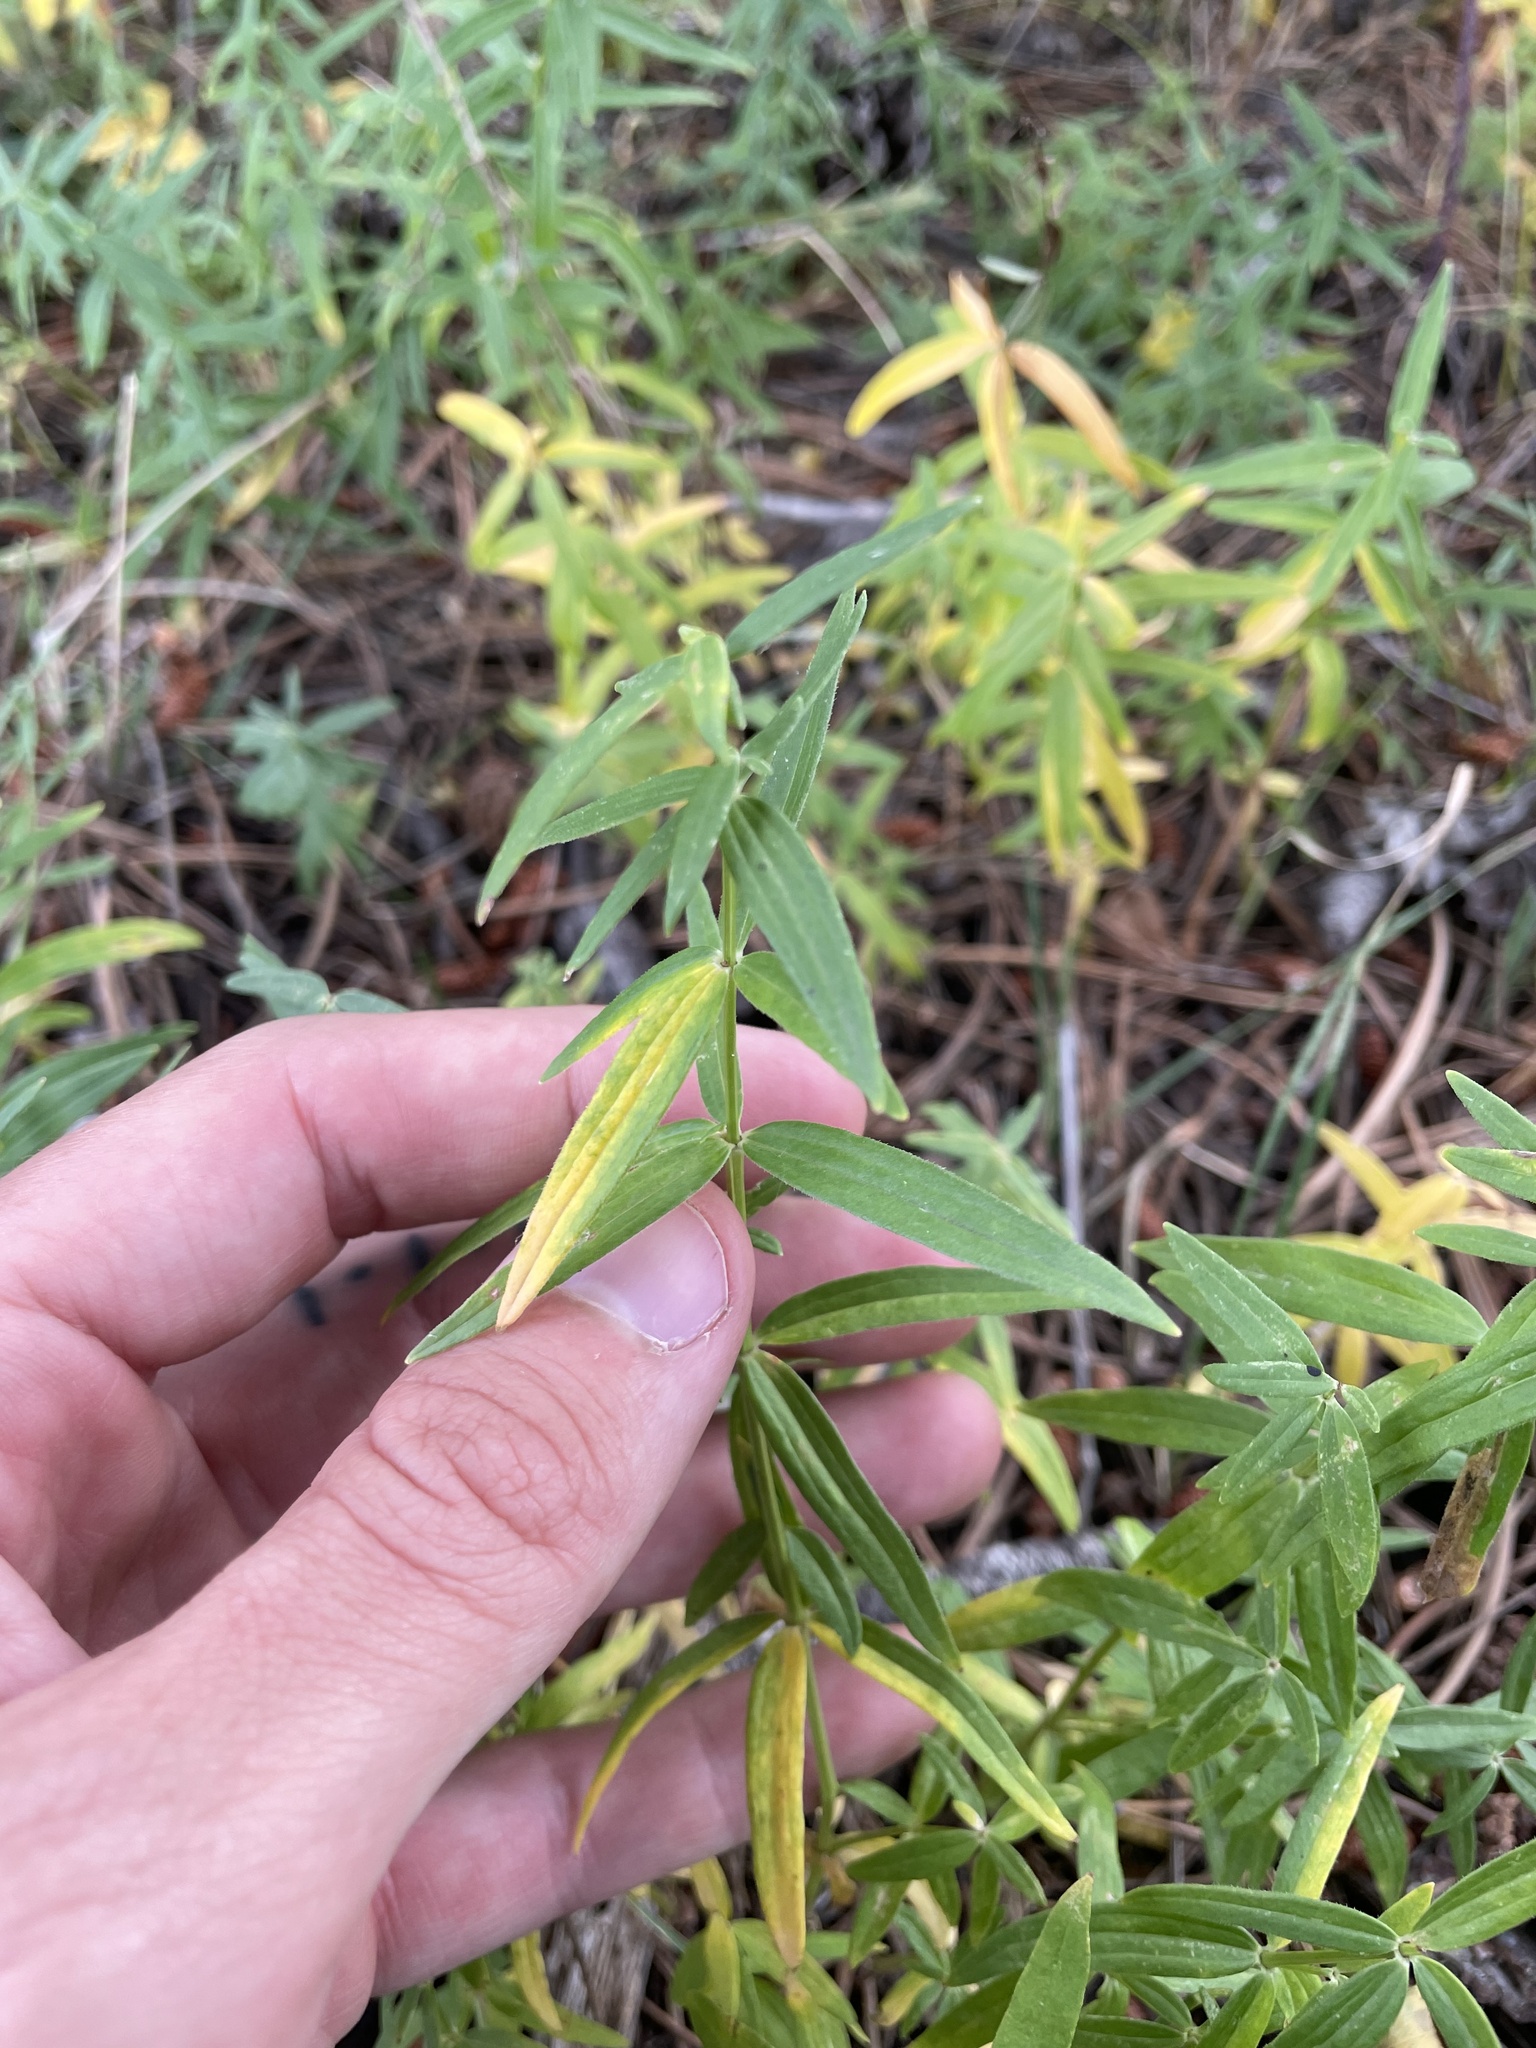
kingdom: Plantae
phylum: Tracheophyta
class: Magnoliopsida
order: Gentianales
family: Rubiaceae
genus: Galium
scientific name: Galium boreale
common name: Northern bedstraw
